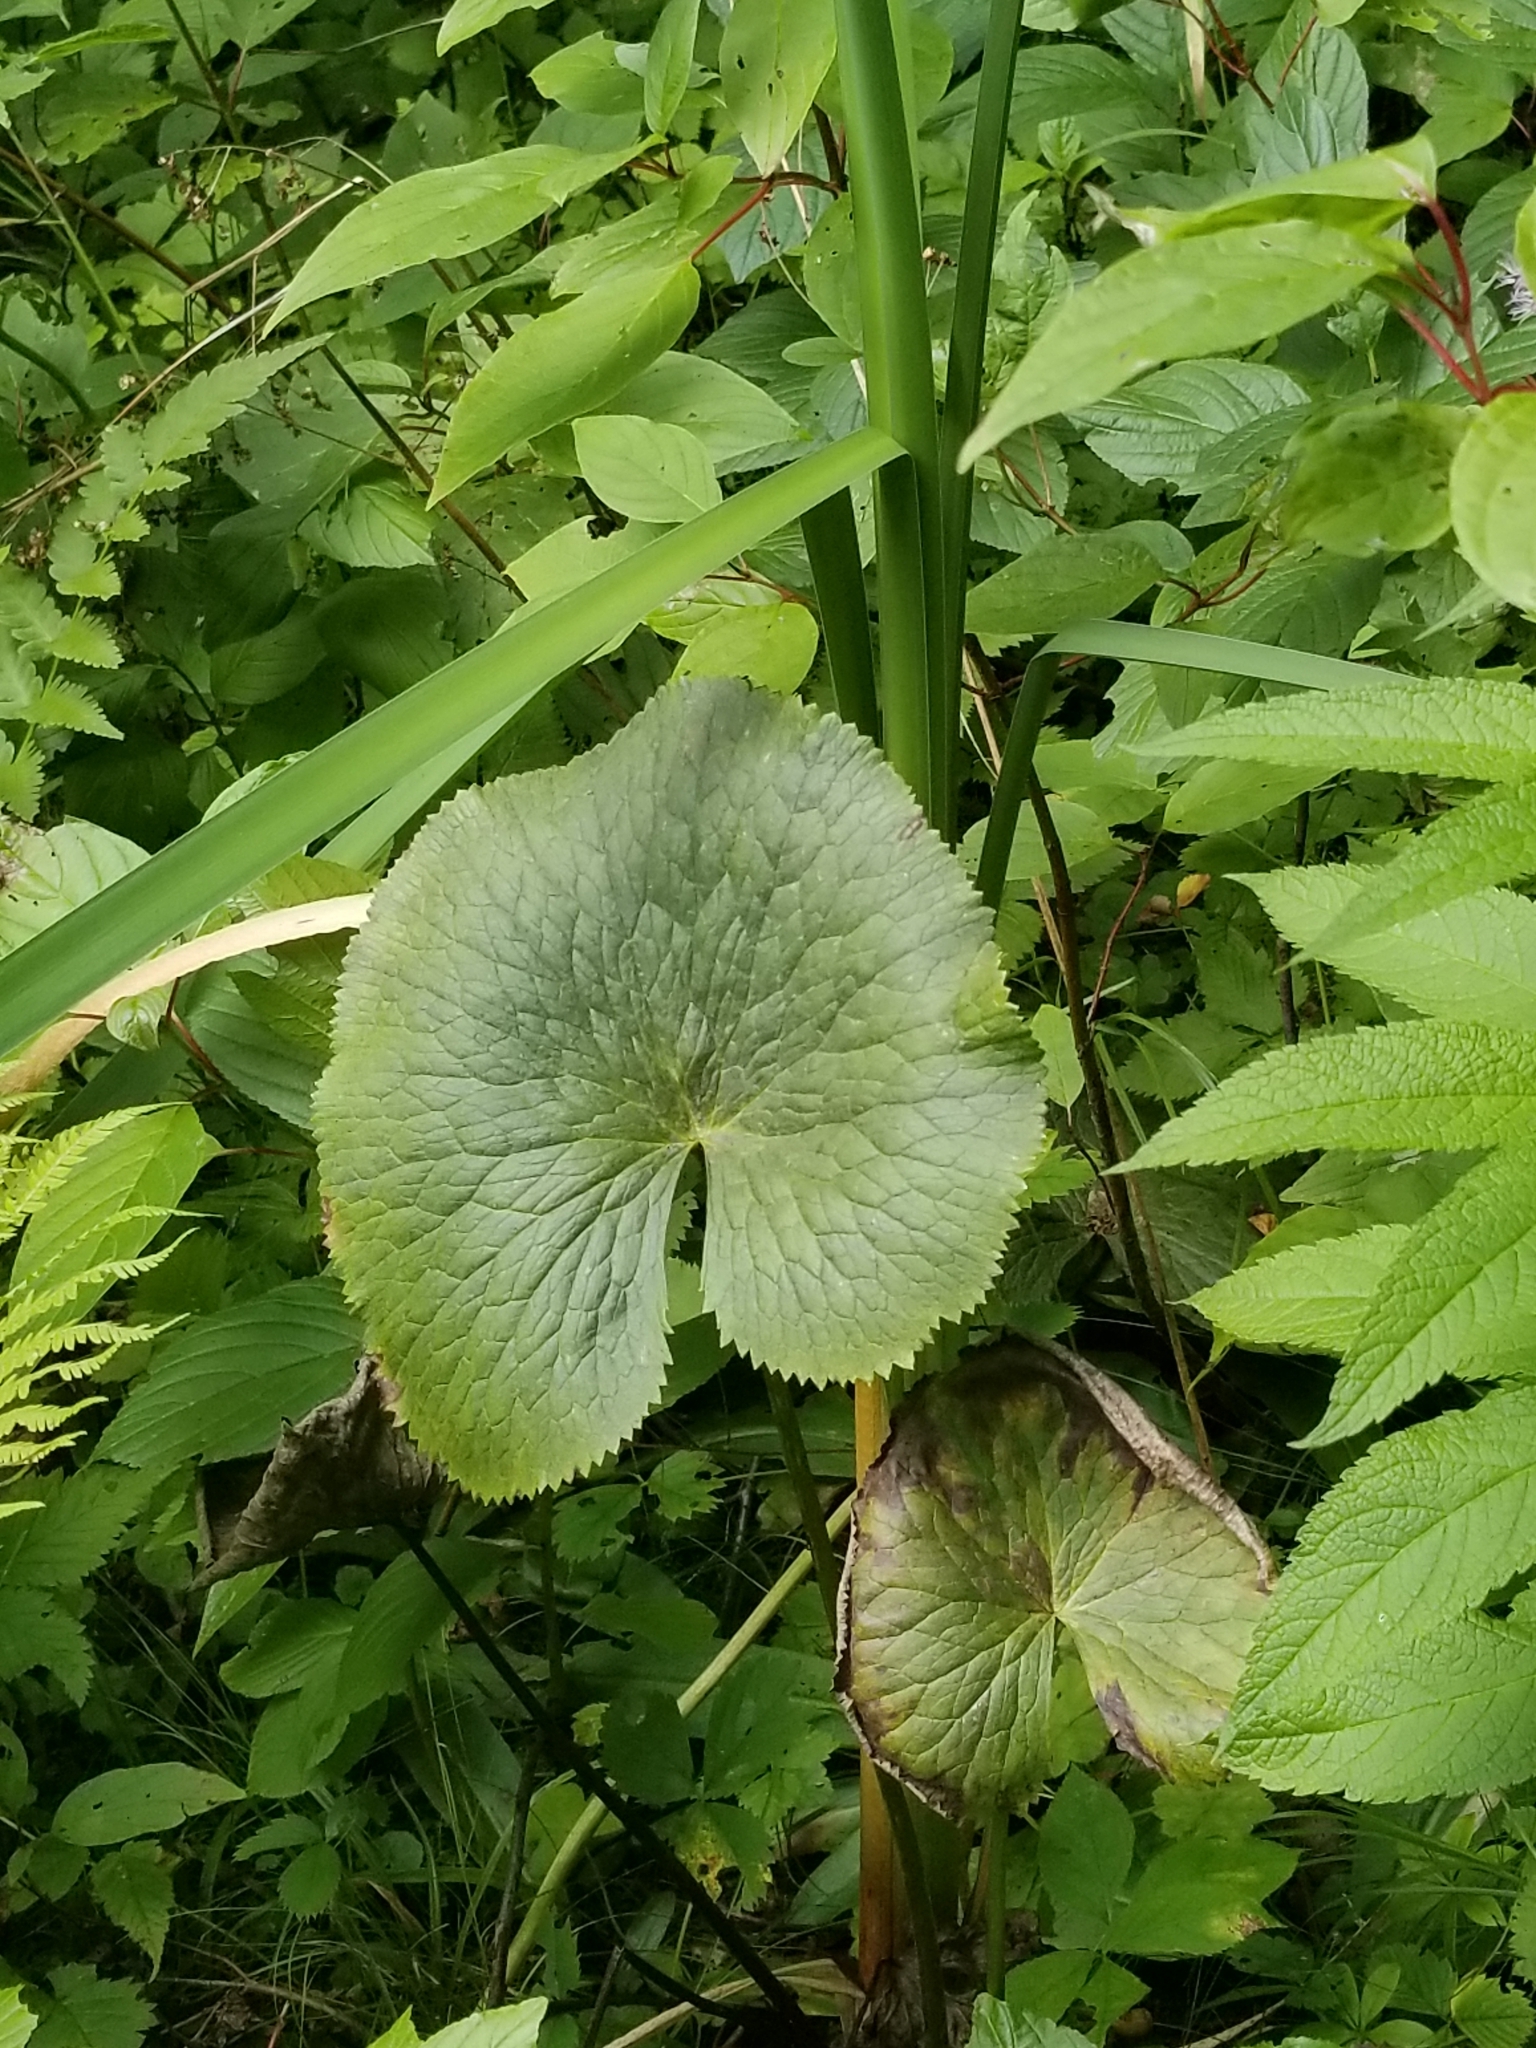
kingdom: Plantae
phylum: Tracheophyta
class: Magnoliopsida
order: Ranunculales
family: Ranunculaceae
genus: Caltha
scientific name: Caltha palustris
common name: Marsh marigold
